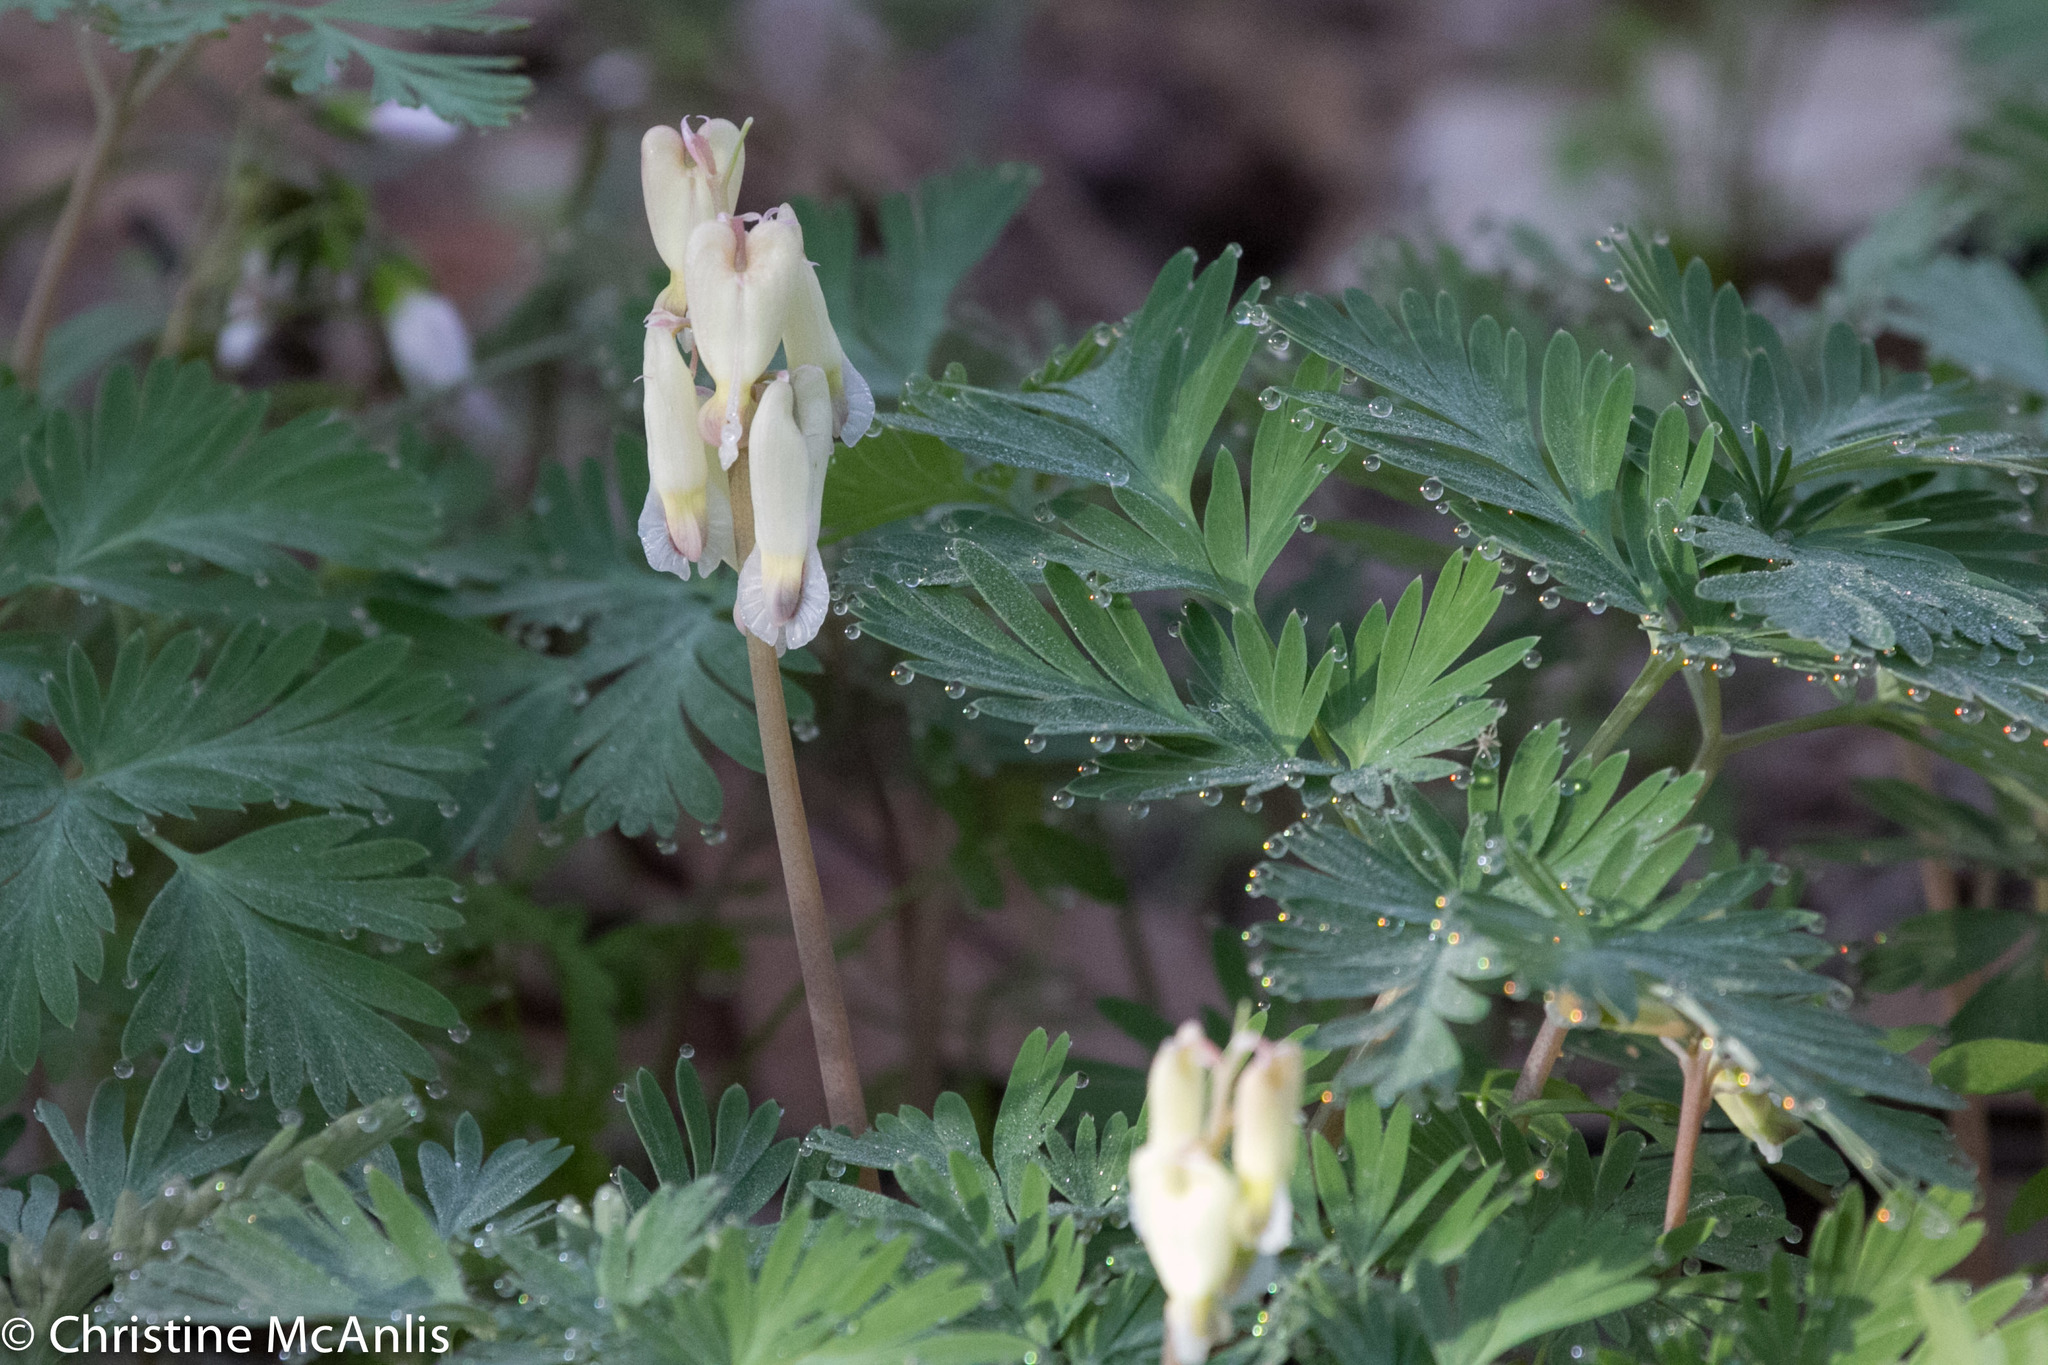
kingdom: Plantae
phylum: Tracheophyta
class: Magnoliopsida
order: Ranunculales
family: Papaveraceae
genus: Dicentra
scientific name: Dicentra canadensis
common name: Squirrel-corn
